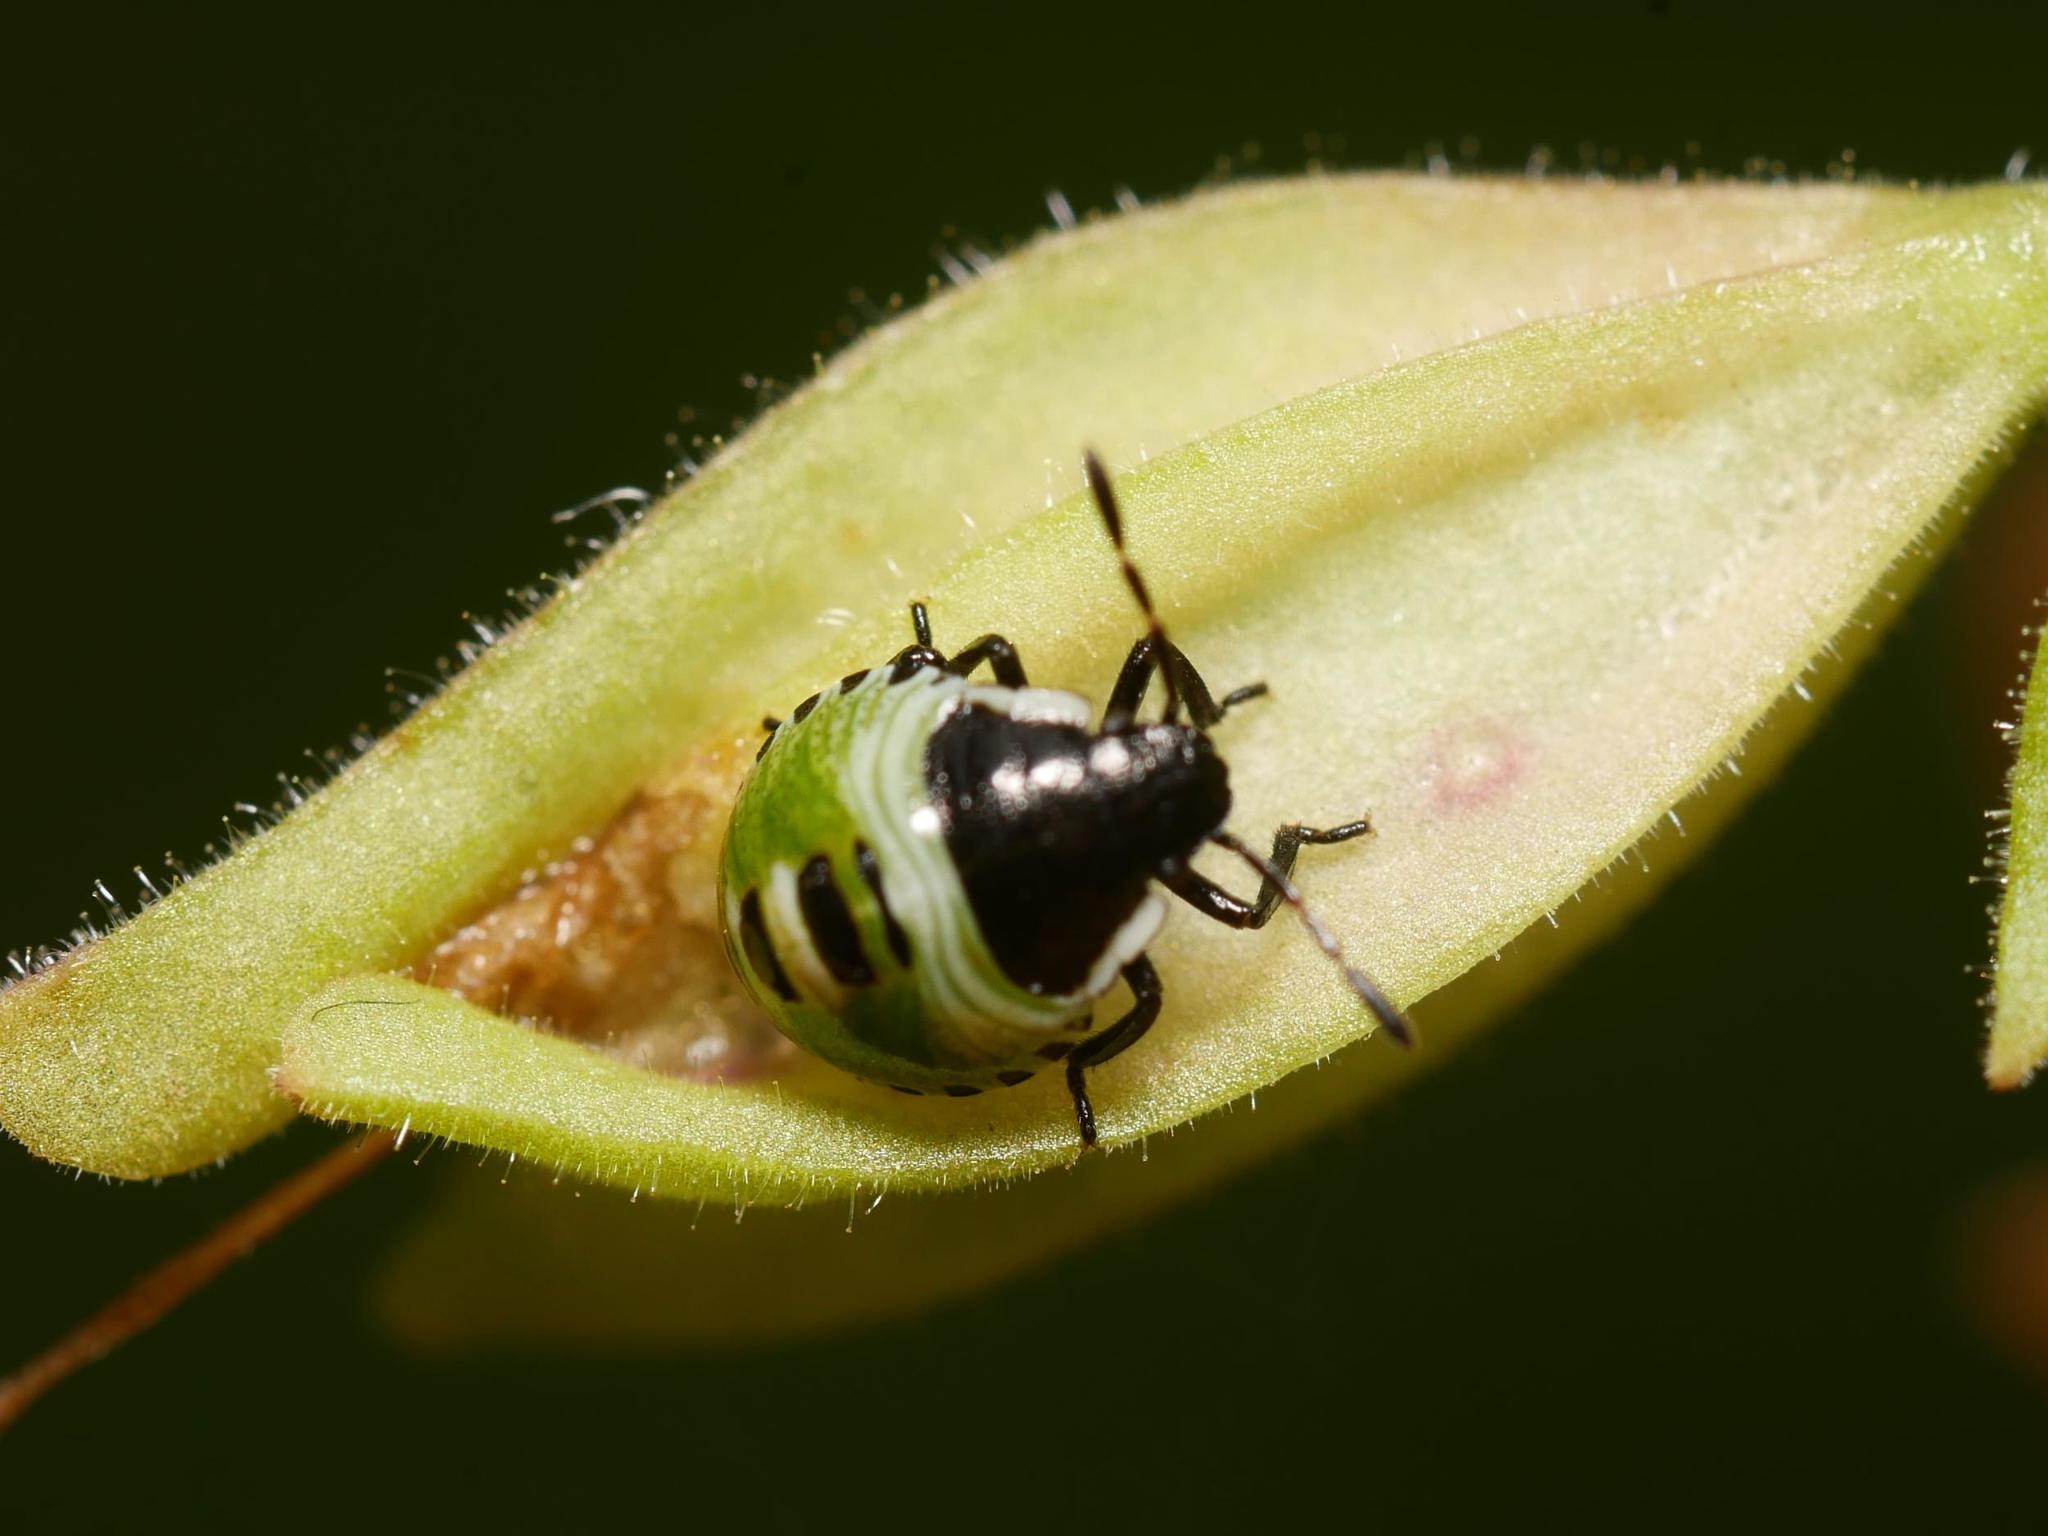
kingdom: Animalia
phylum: Arthropoda
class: Insecta
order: Hemiptera
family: Pentatomidae
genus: Palomena
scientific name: Palomena prasina
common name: Green shieldbug
